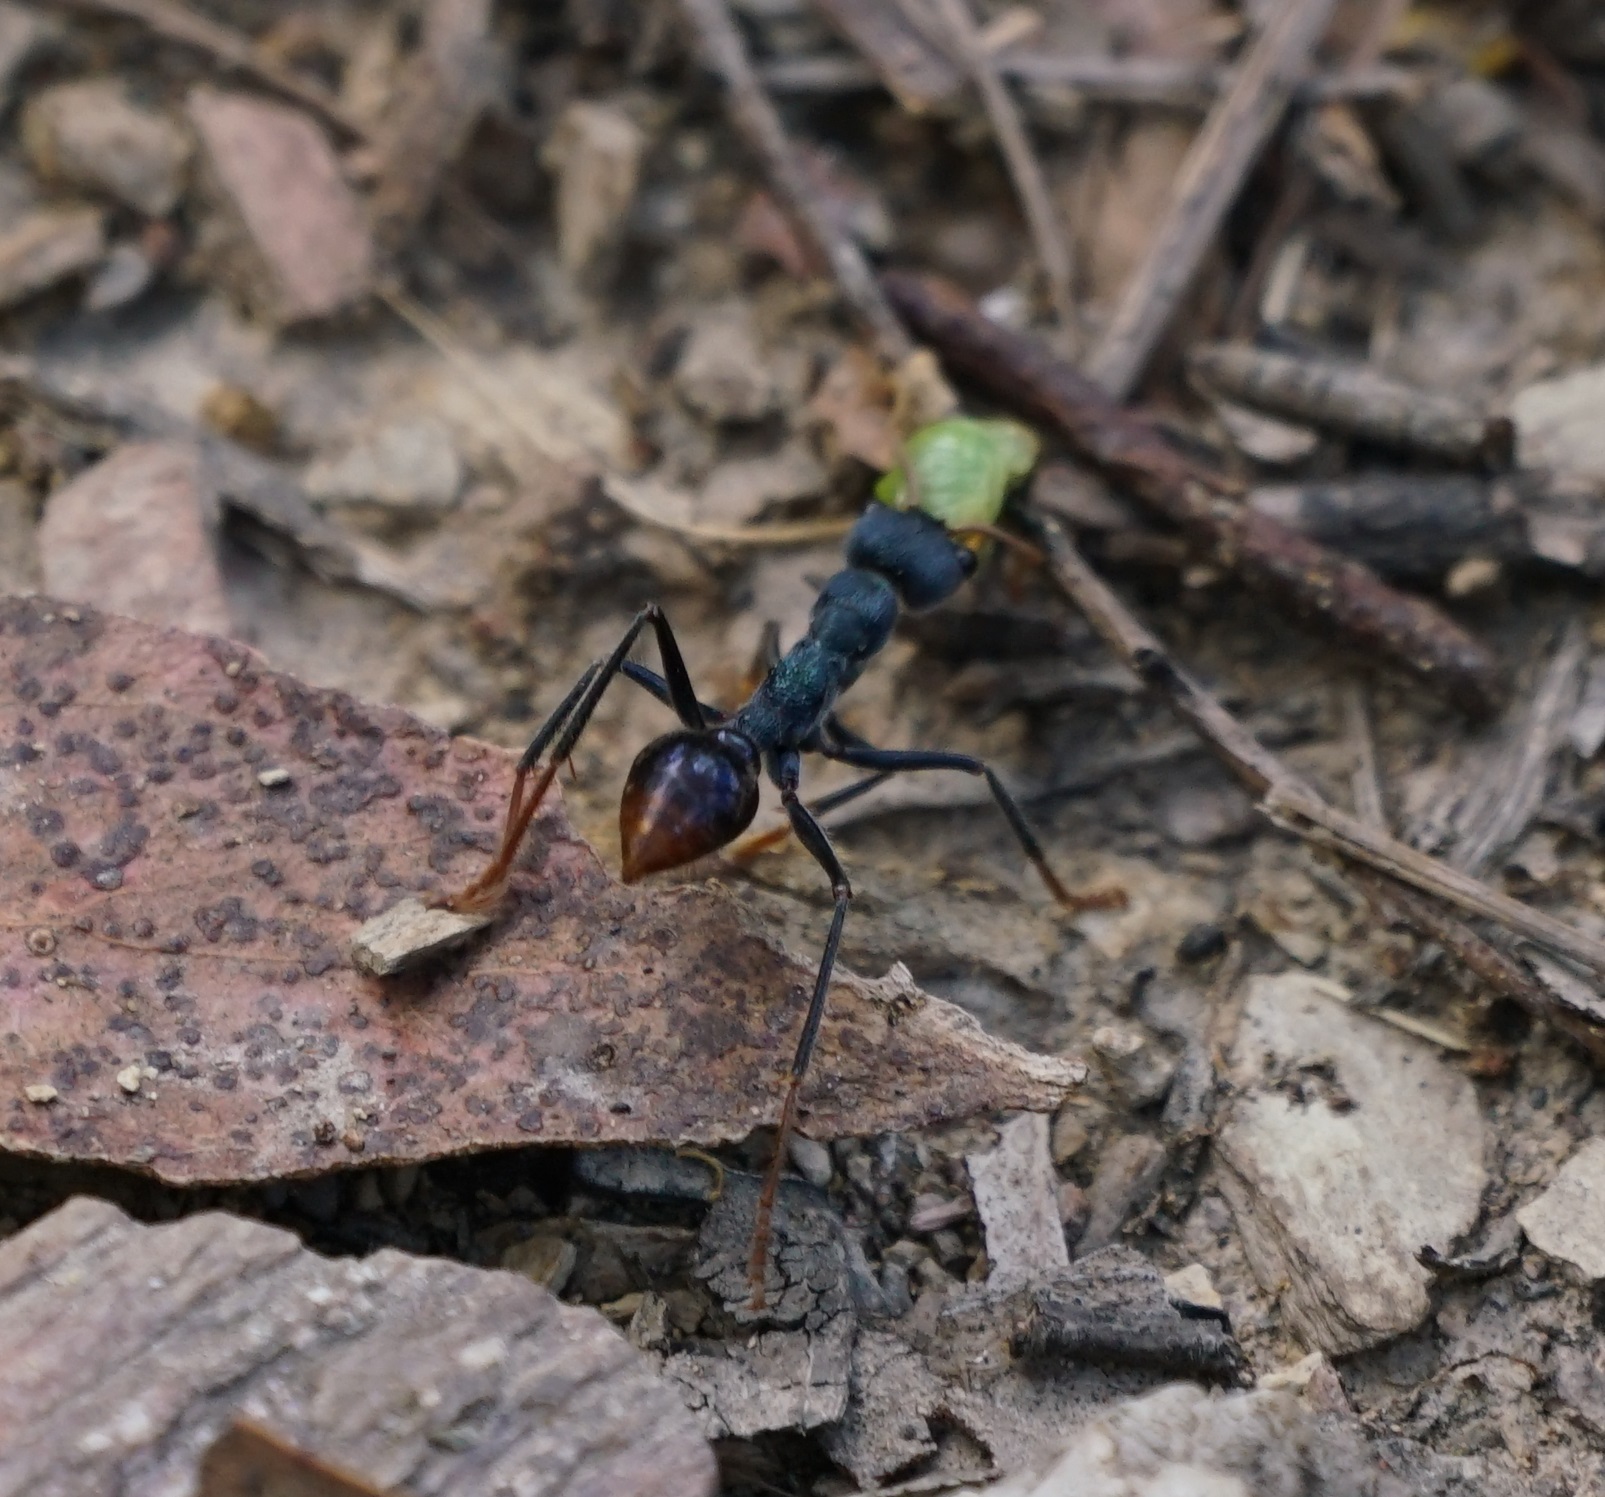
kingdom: Animalia
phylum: Arthropoda
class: Insecta
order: Hymenoptera
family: Formicidae
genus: Myrmecia
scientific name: Myrmecia tarsata
